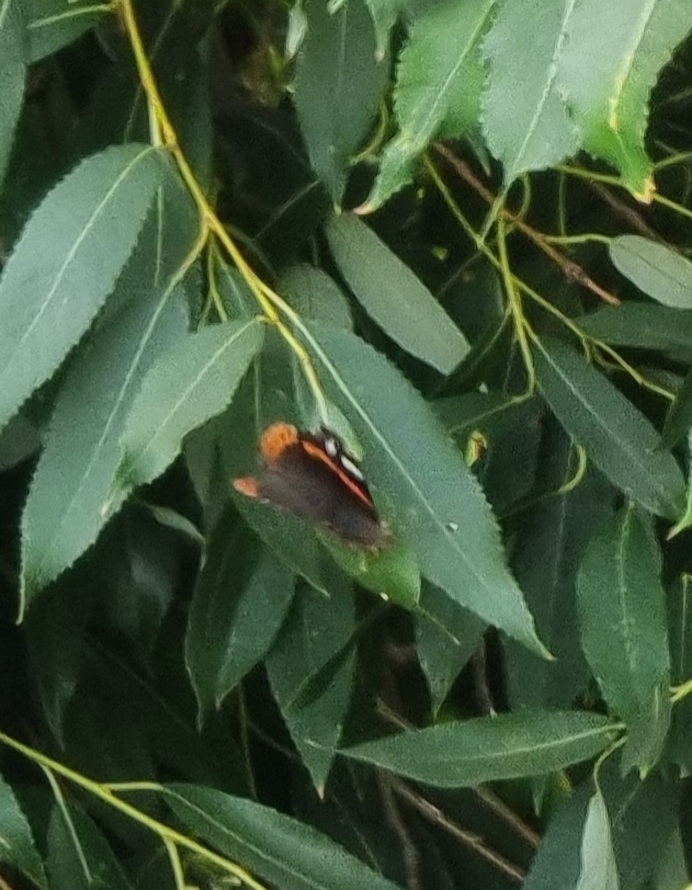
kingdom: Animalia
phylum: Arthropoda
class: Insecta
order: Lepidoptera
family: Nymphalidae
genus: Vanessa
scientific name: Vanessa atalanta
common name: Red admiral
